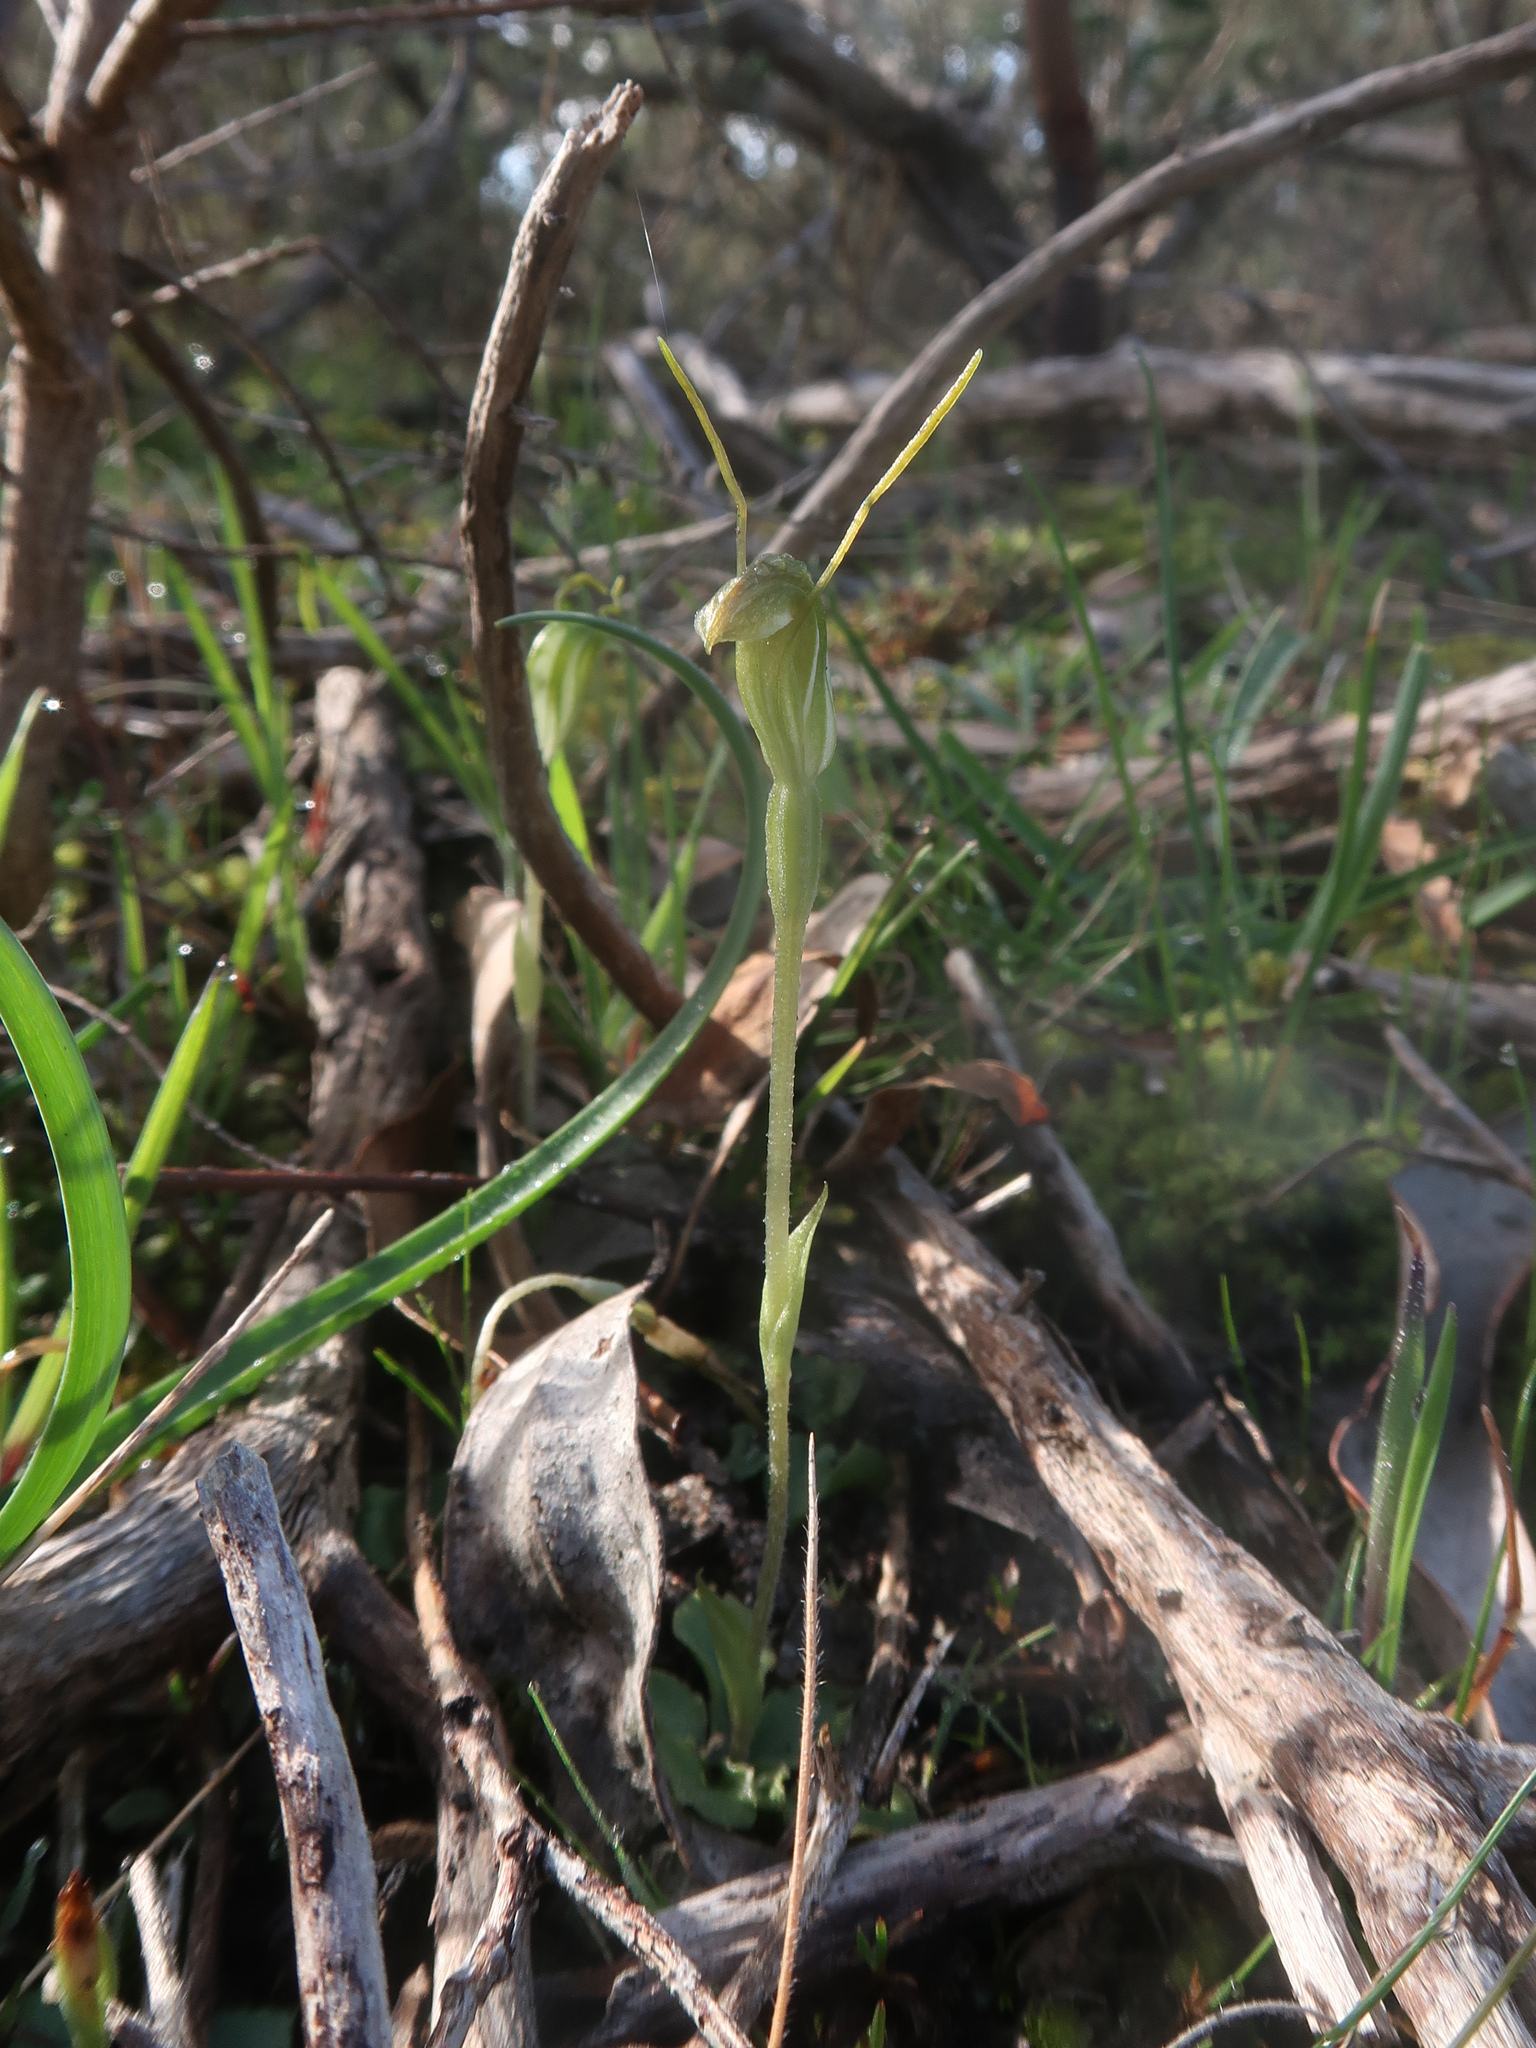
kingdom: Plantae
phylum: Tracheophyta
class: Liliopsida
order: Asparagales
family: Orchidaceae
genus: Pterostylis
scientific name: Pterostylis nana
